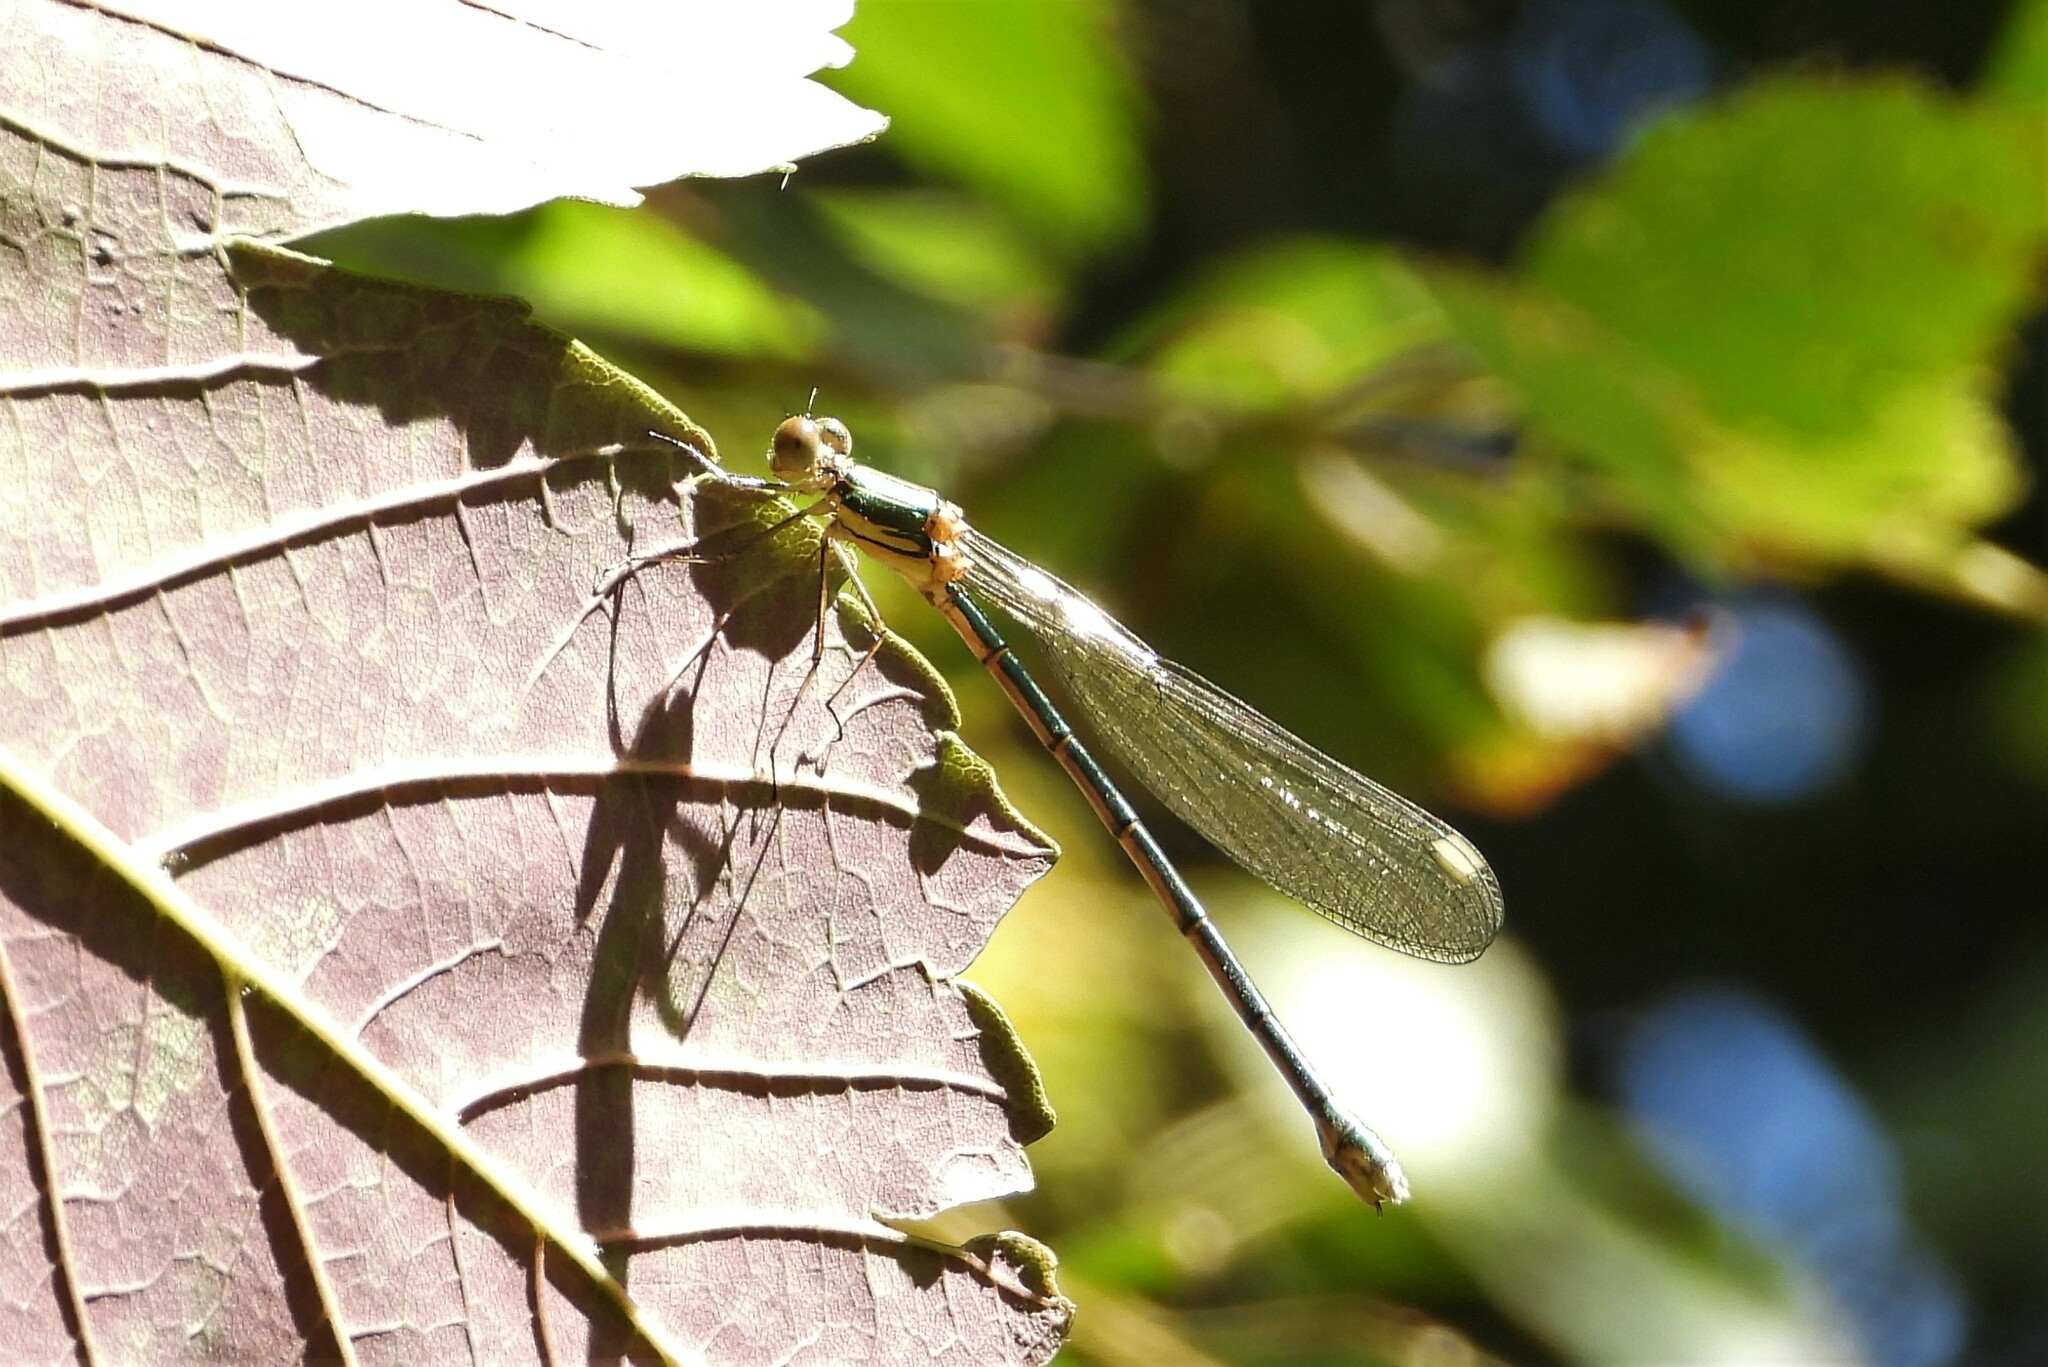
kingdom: Animalia
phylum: Arthropoda
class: Insecta
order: Odonata
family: Lestidae
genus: Chalcolestes
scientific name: Chalcolestes viridis
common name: Green emerald damselfly
